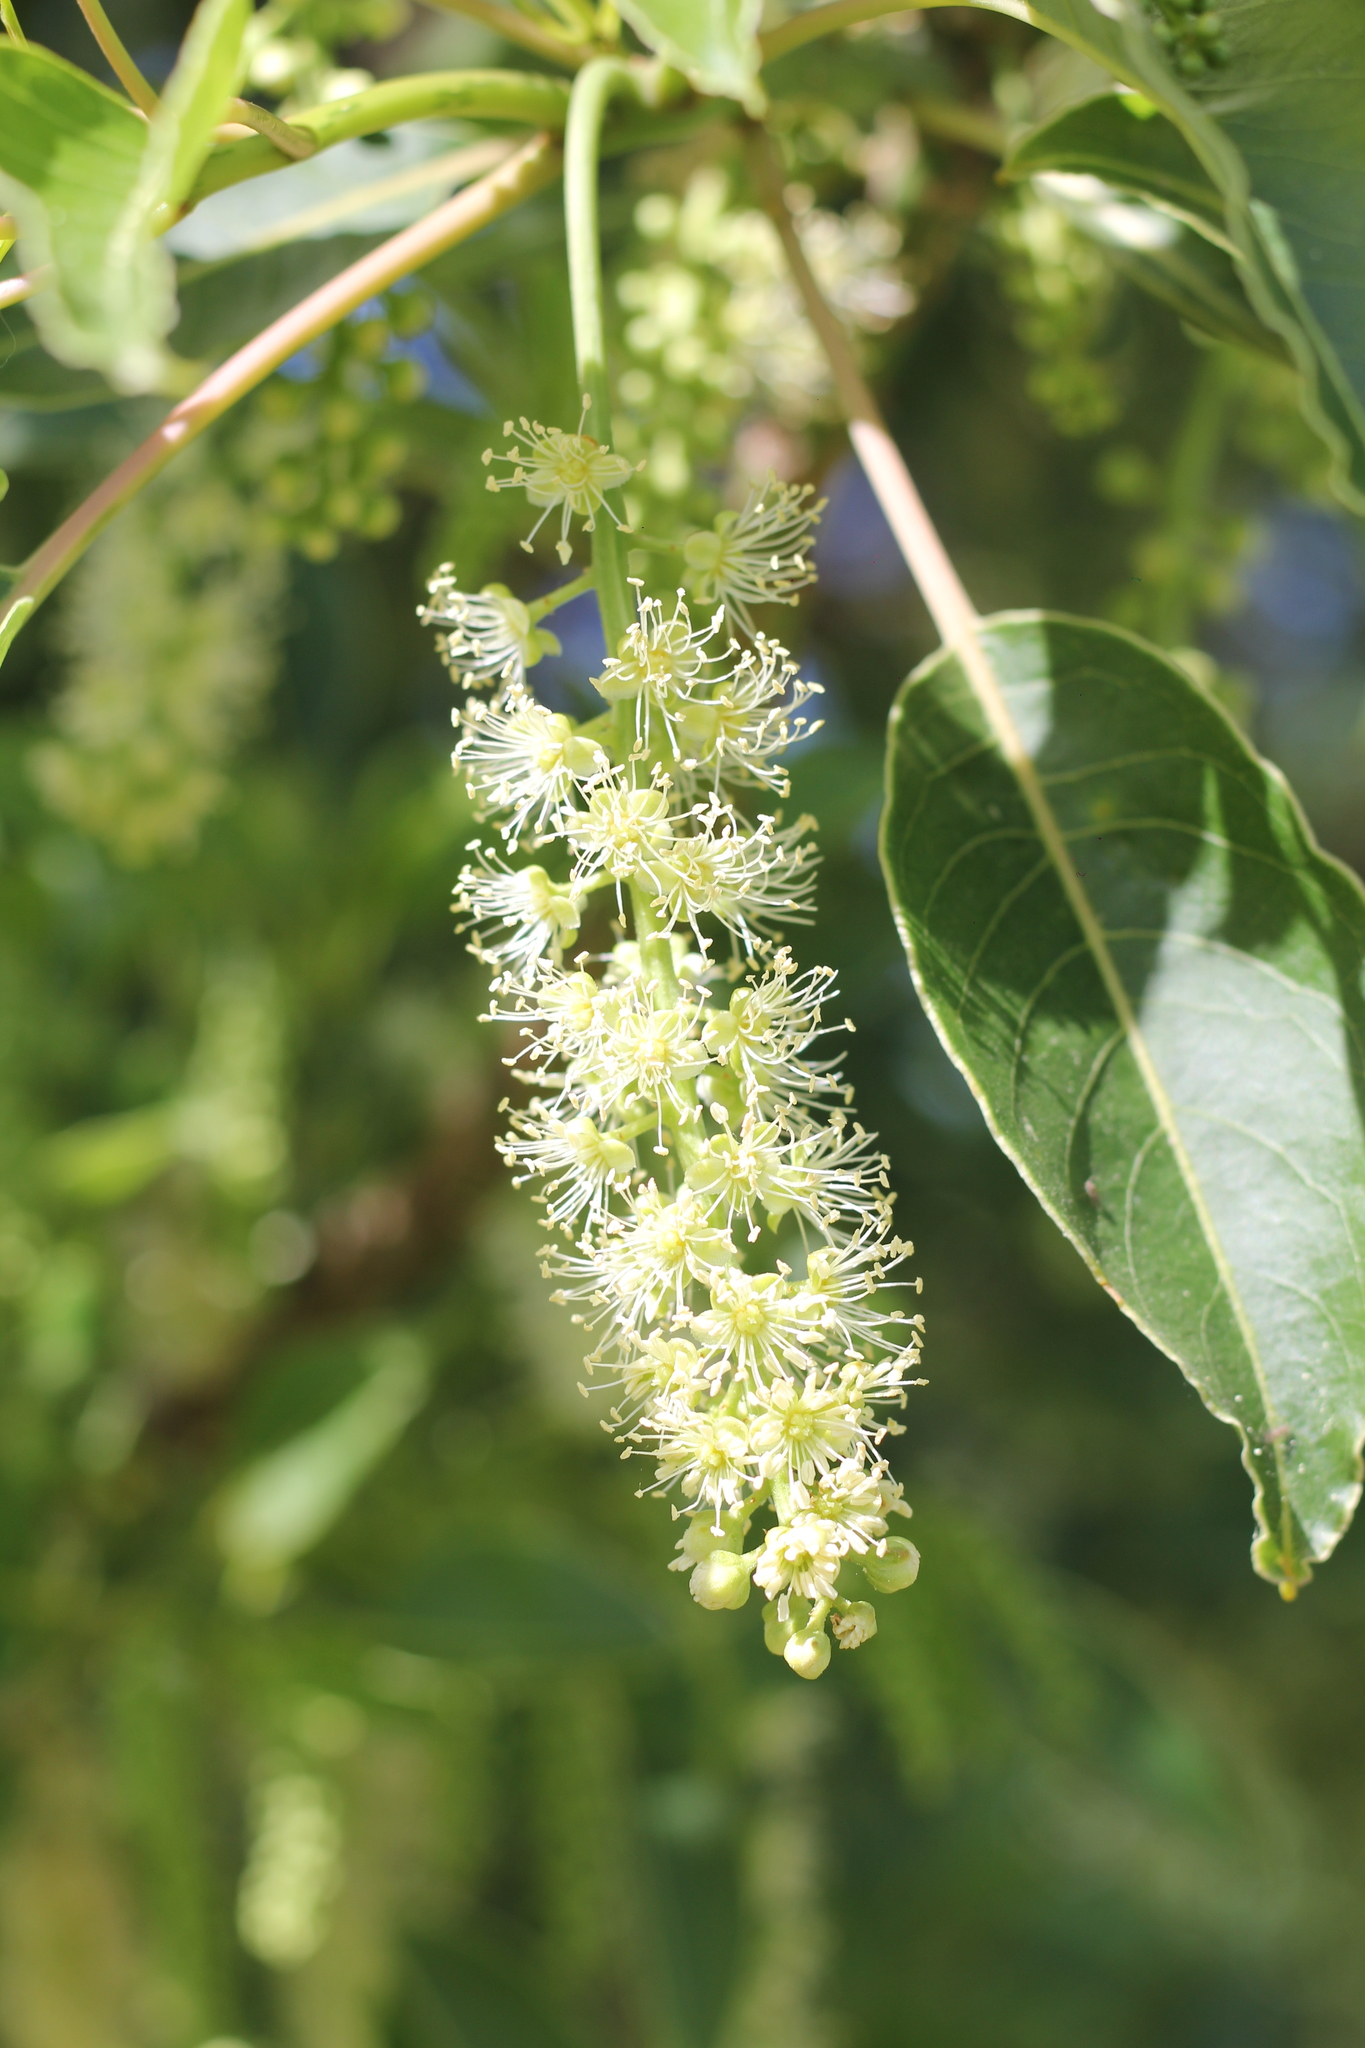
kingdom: Plantae
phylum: Tracheophyta
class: Magnoliopsida
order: Caryophyllales
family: Phytolaccaceae
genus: Phytolacca
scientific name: Phytolacca dioica
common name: Pokeweed
